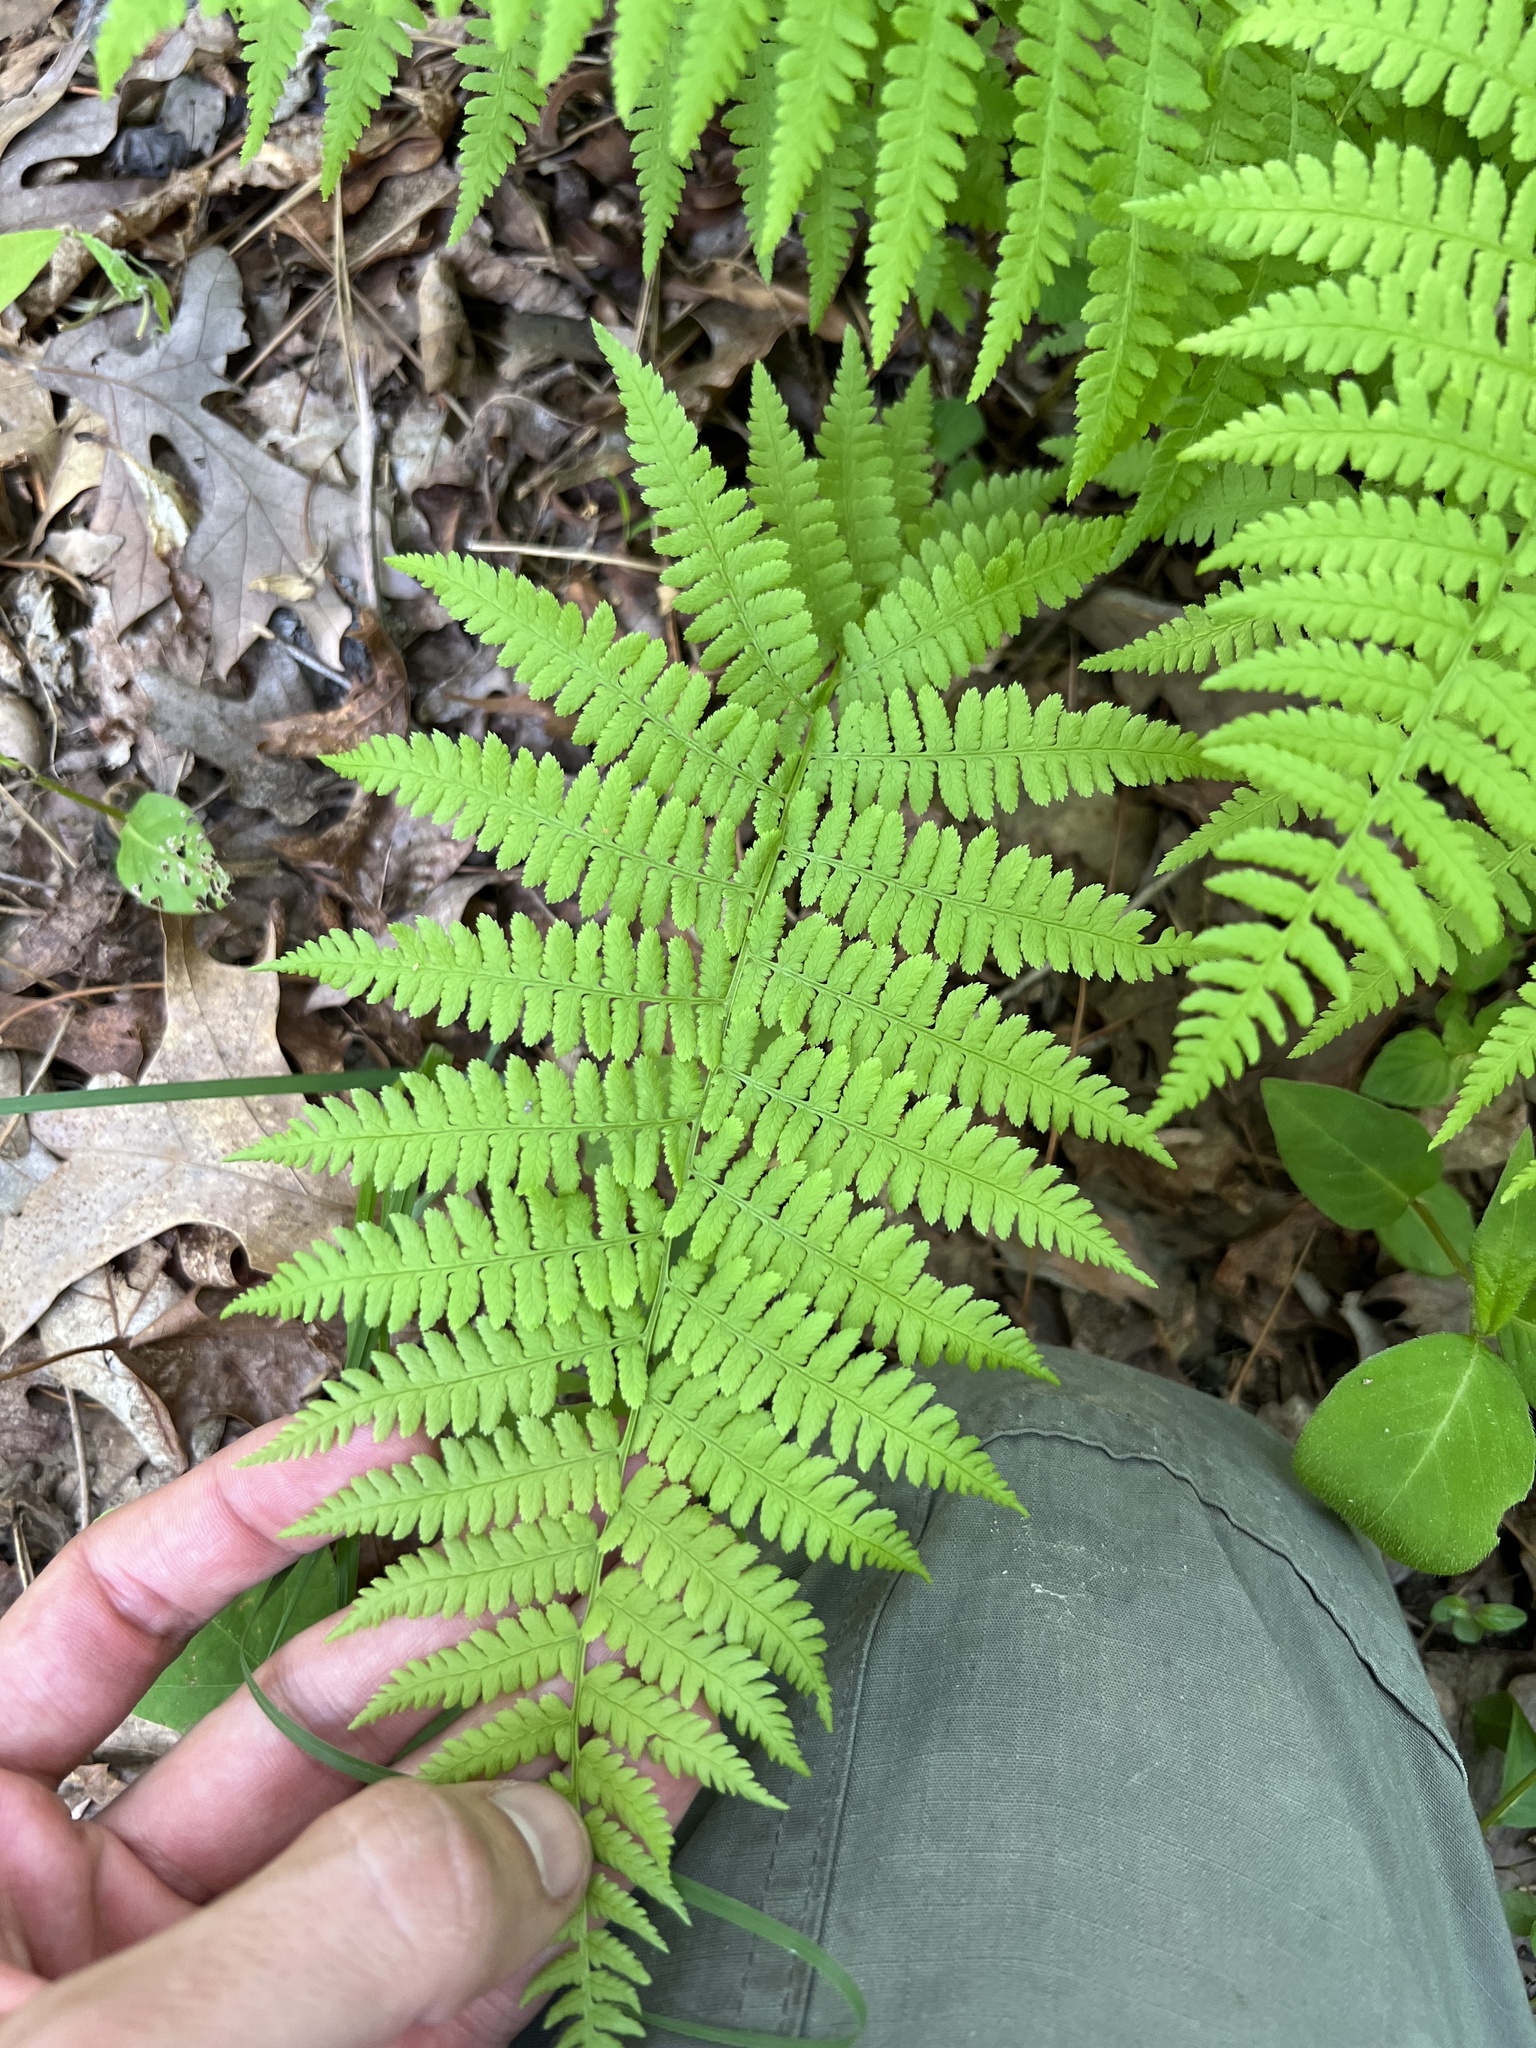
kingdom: Plantae
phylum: Tracheophyta
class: Polypodiopsida
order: Polypodiales
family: Athyriaceae
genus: Athyrium
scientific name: Athyrium asplenioides
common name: Southern lady fern
